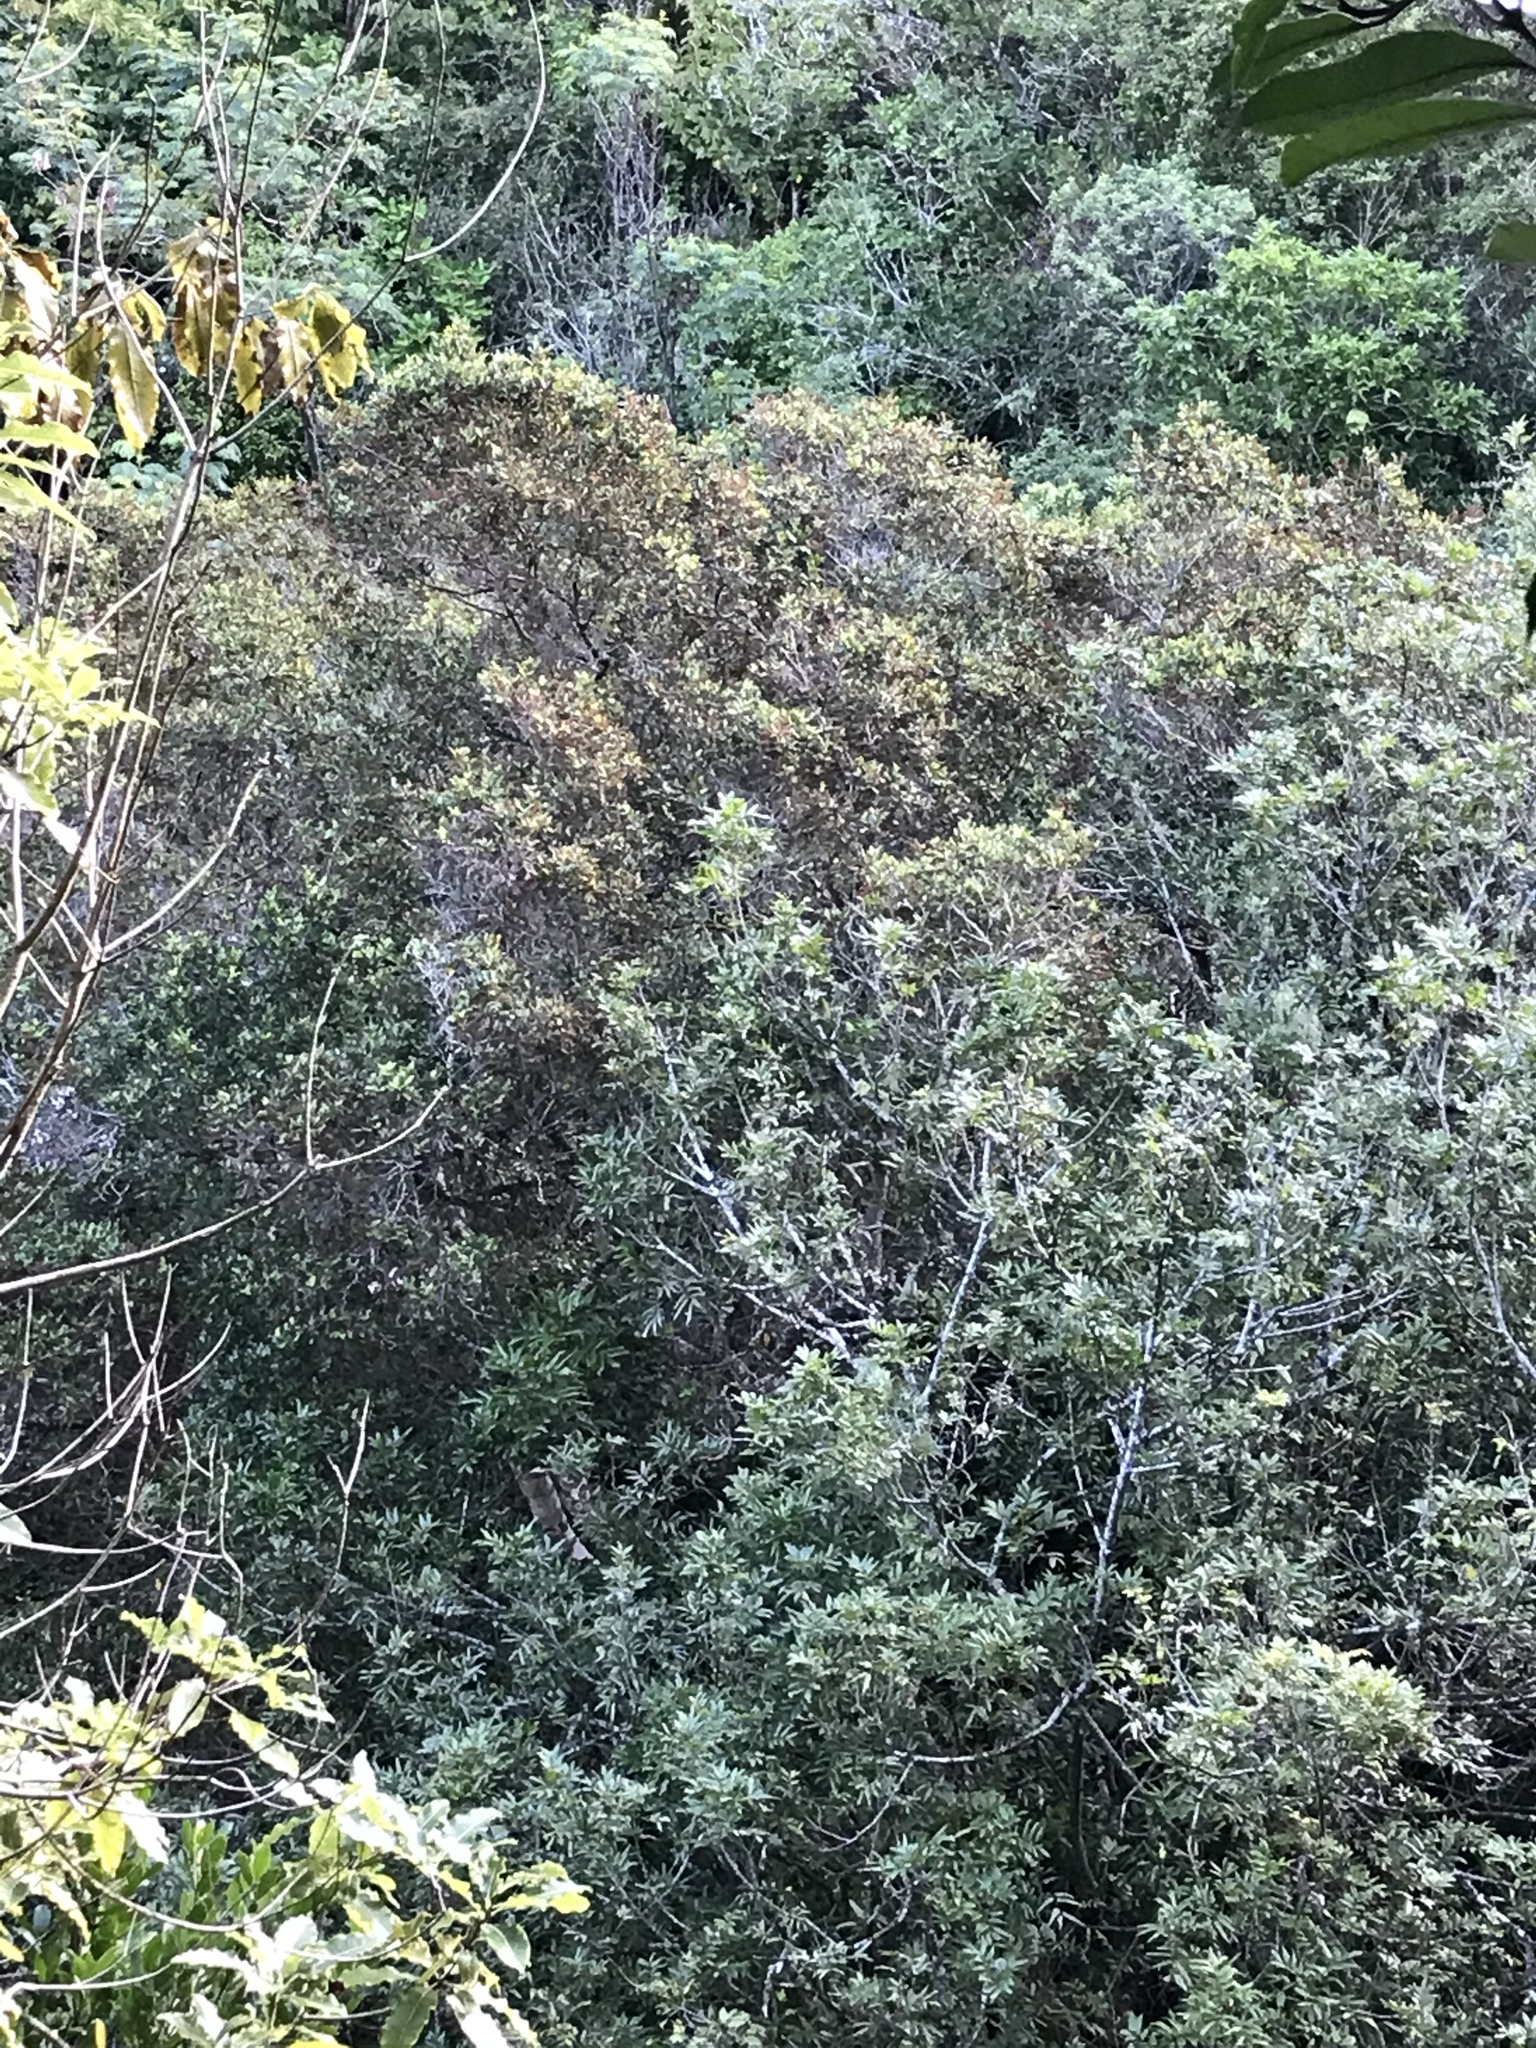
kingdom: Plantae
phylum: Tracheophyta
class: Magnoliopsida
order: Oxalidales
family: Cunoniaceae
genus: Pterophylla
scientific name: Pterophylla racemosa
